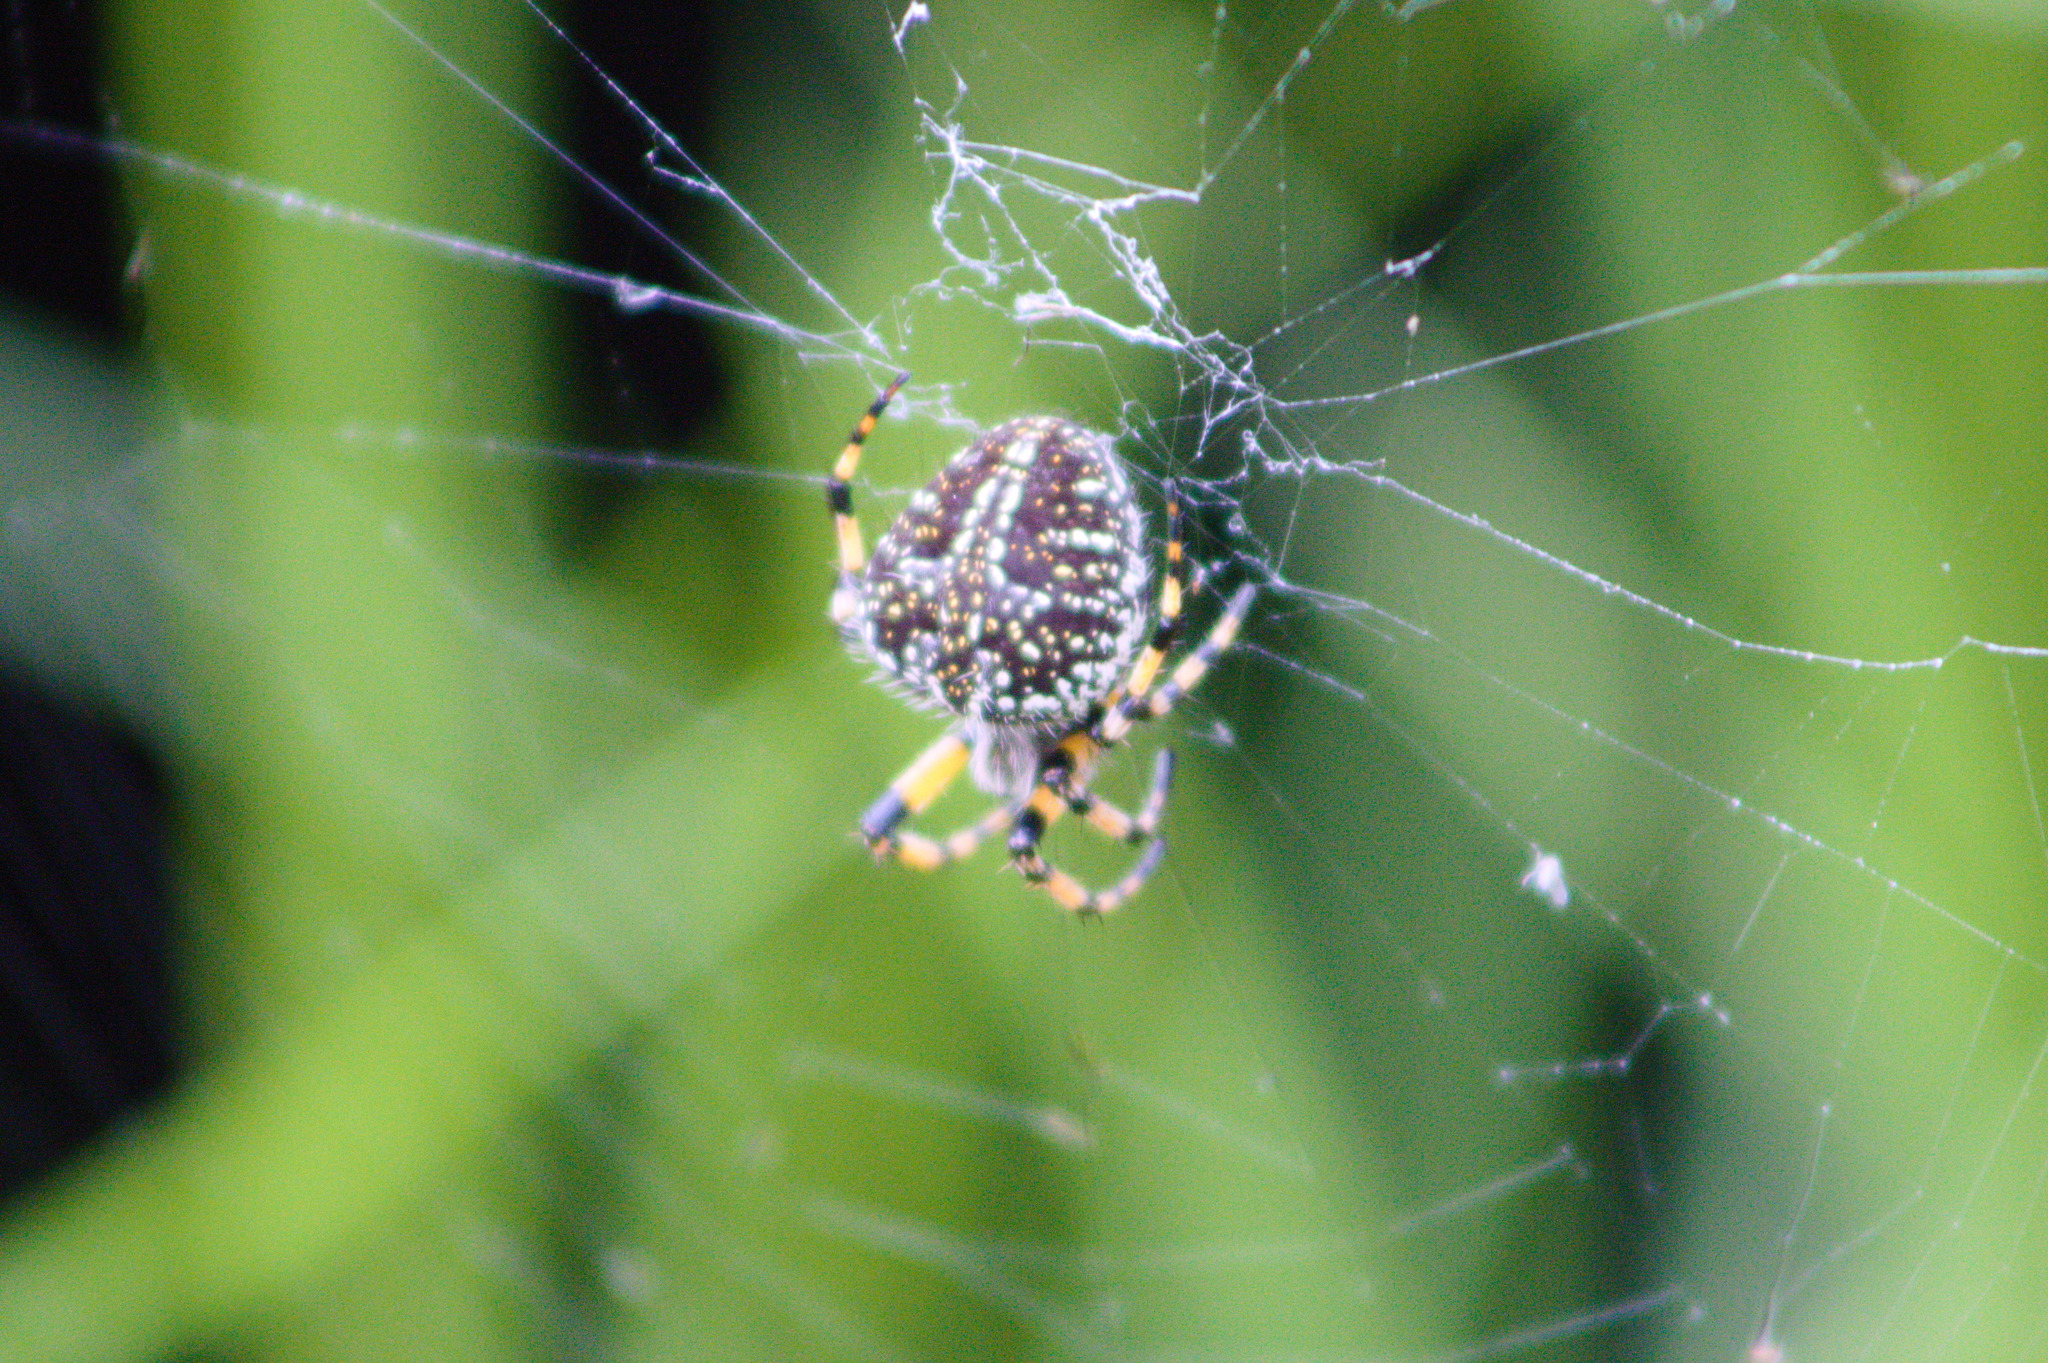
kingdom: Animalia
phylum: Arthropoda
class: Arachnida
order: Araneae
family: Araneidae
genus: Neoscona
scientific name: Neoscona orizabensis
